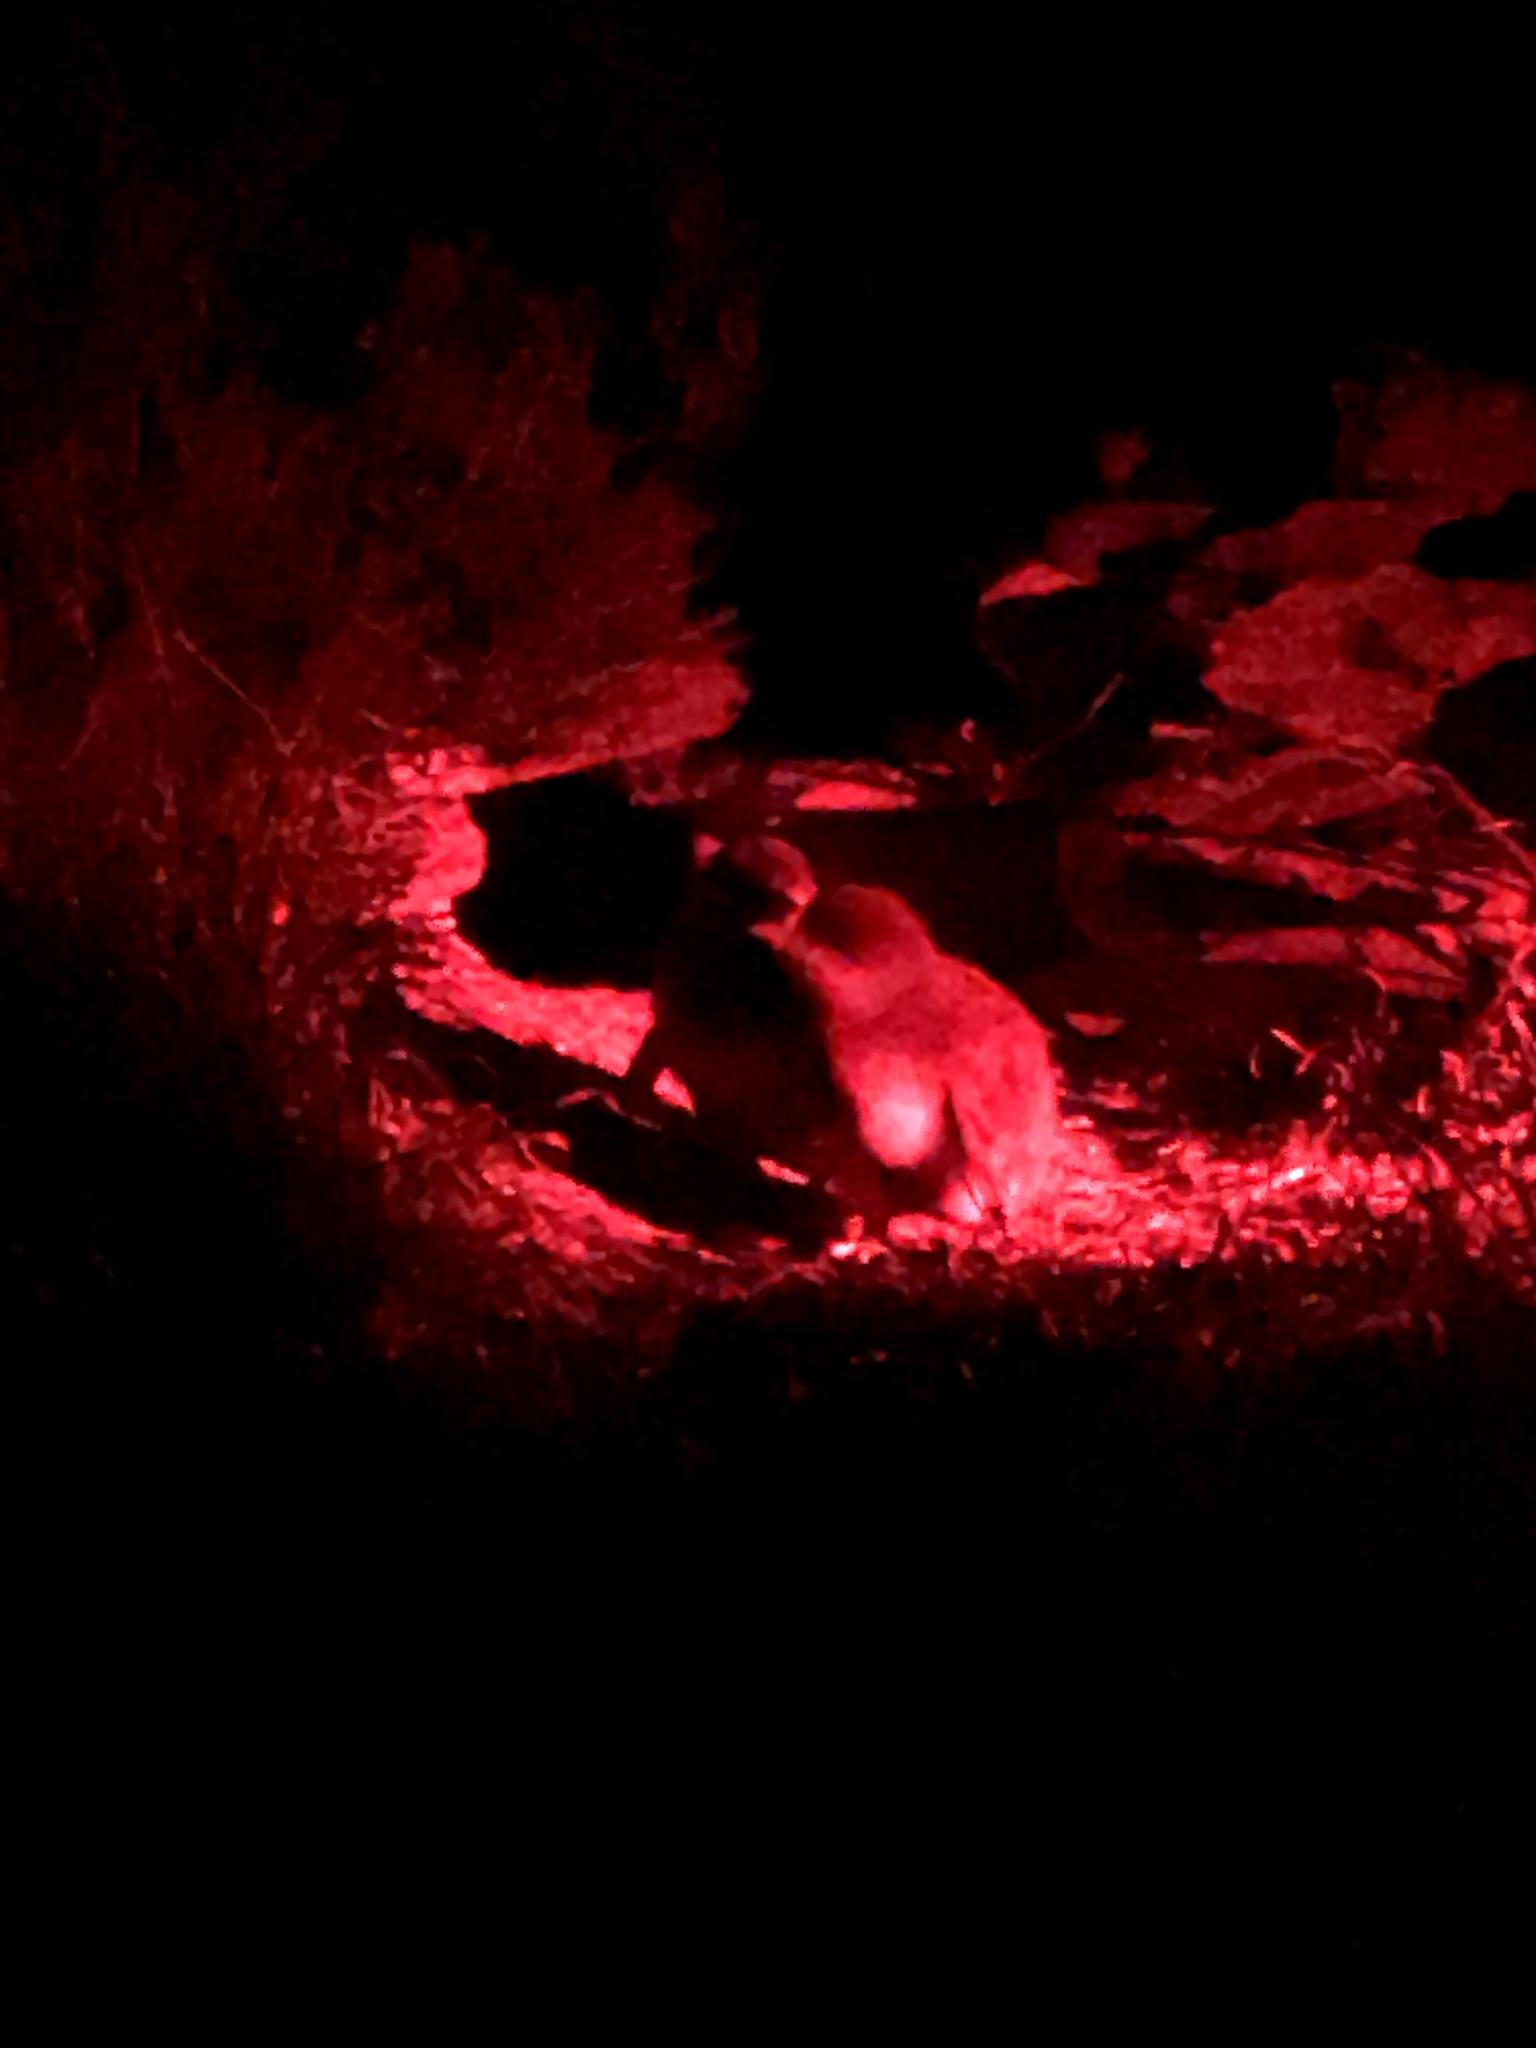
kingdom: Animalia
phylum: Chordata
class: Aves
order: Sphenisciformes
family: Spheniscidae
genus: Eudyptula
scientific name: Eudyptula minor
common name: Little penguin
